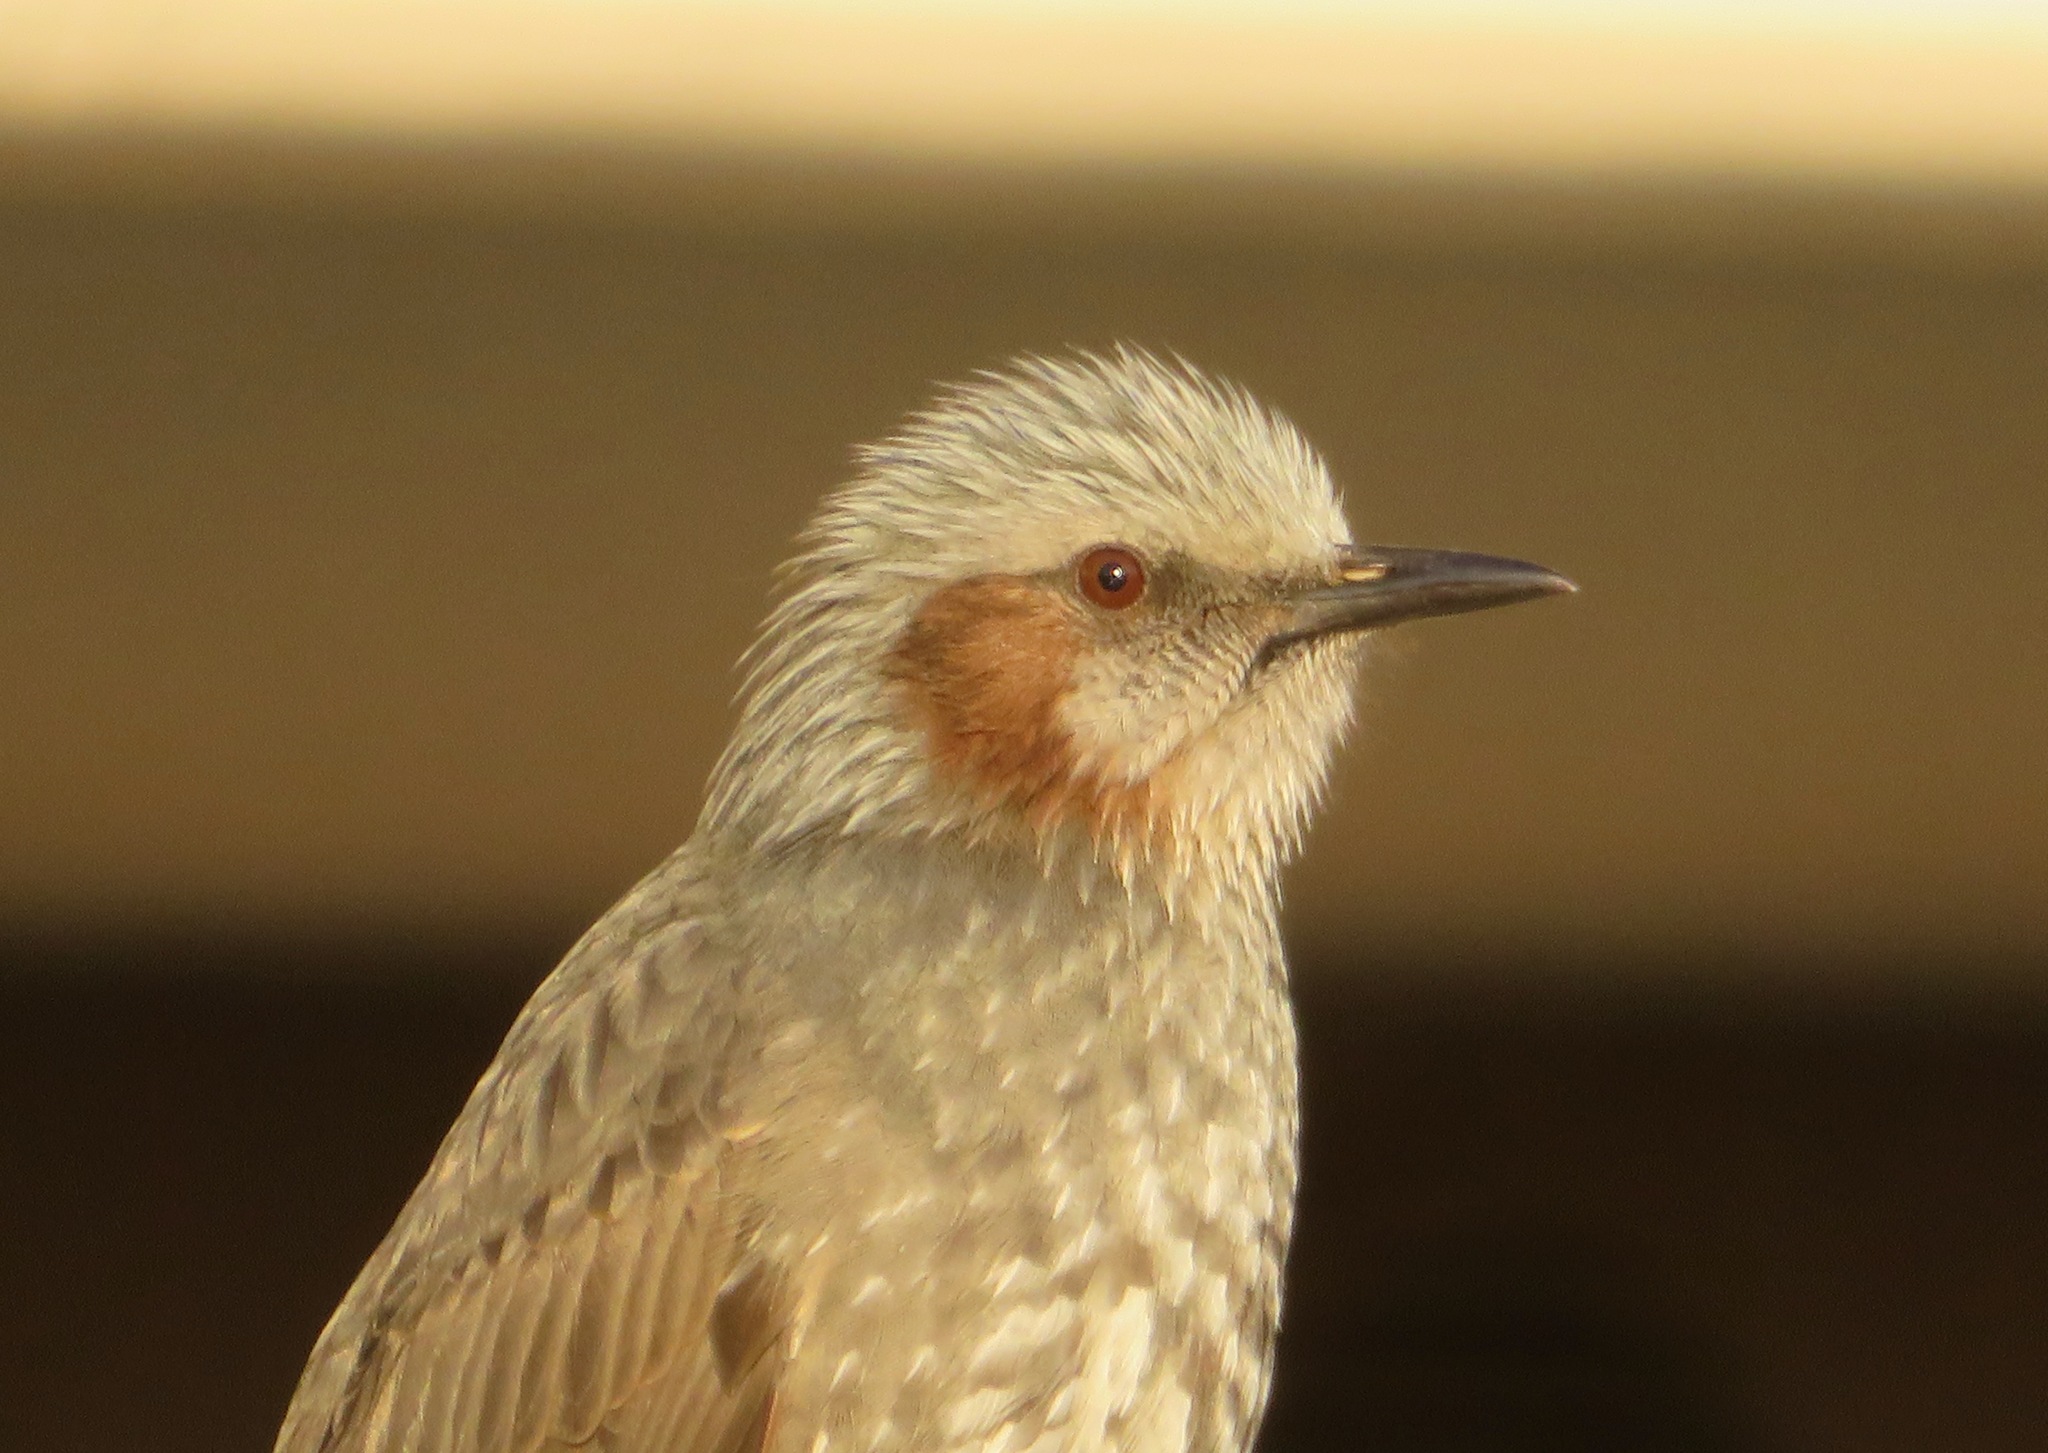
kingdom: Animalia
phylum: Chordata
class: Aves
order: Passeriformes
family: Pycnonotidae
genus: Hypsipetes
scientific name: Hypsipetes amaurotis
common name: Brown-eared bulbul
